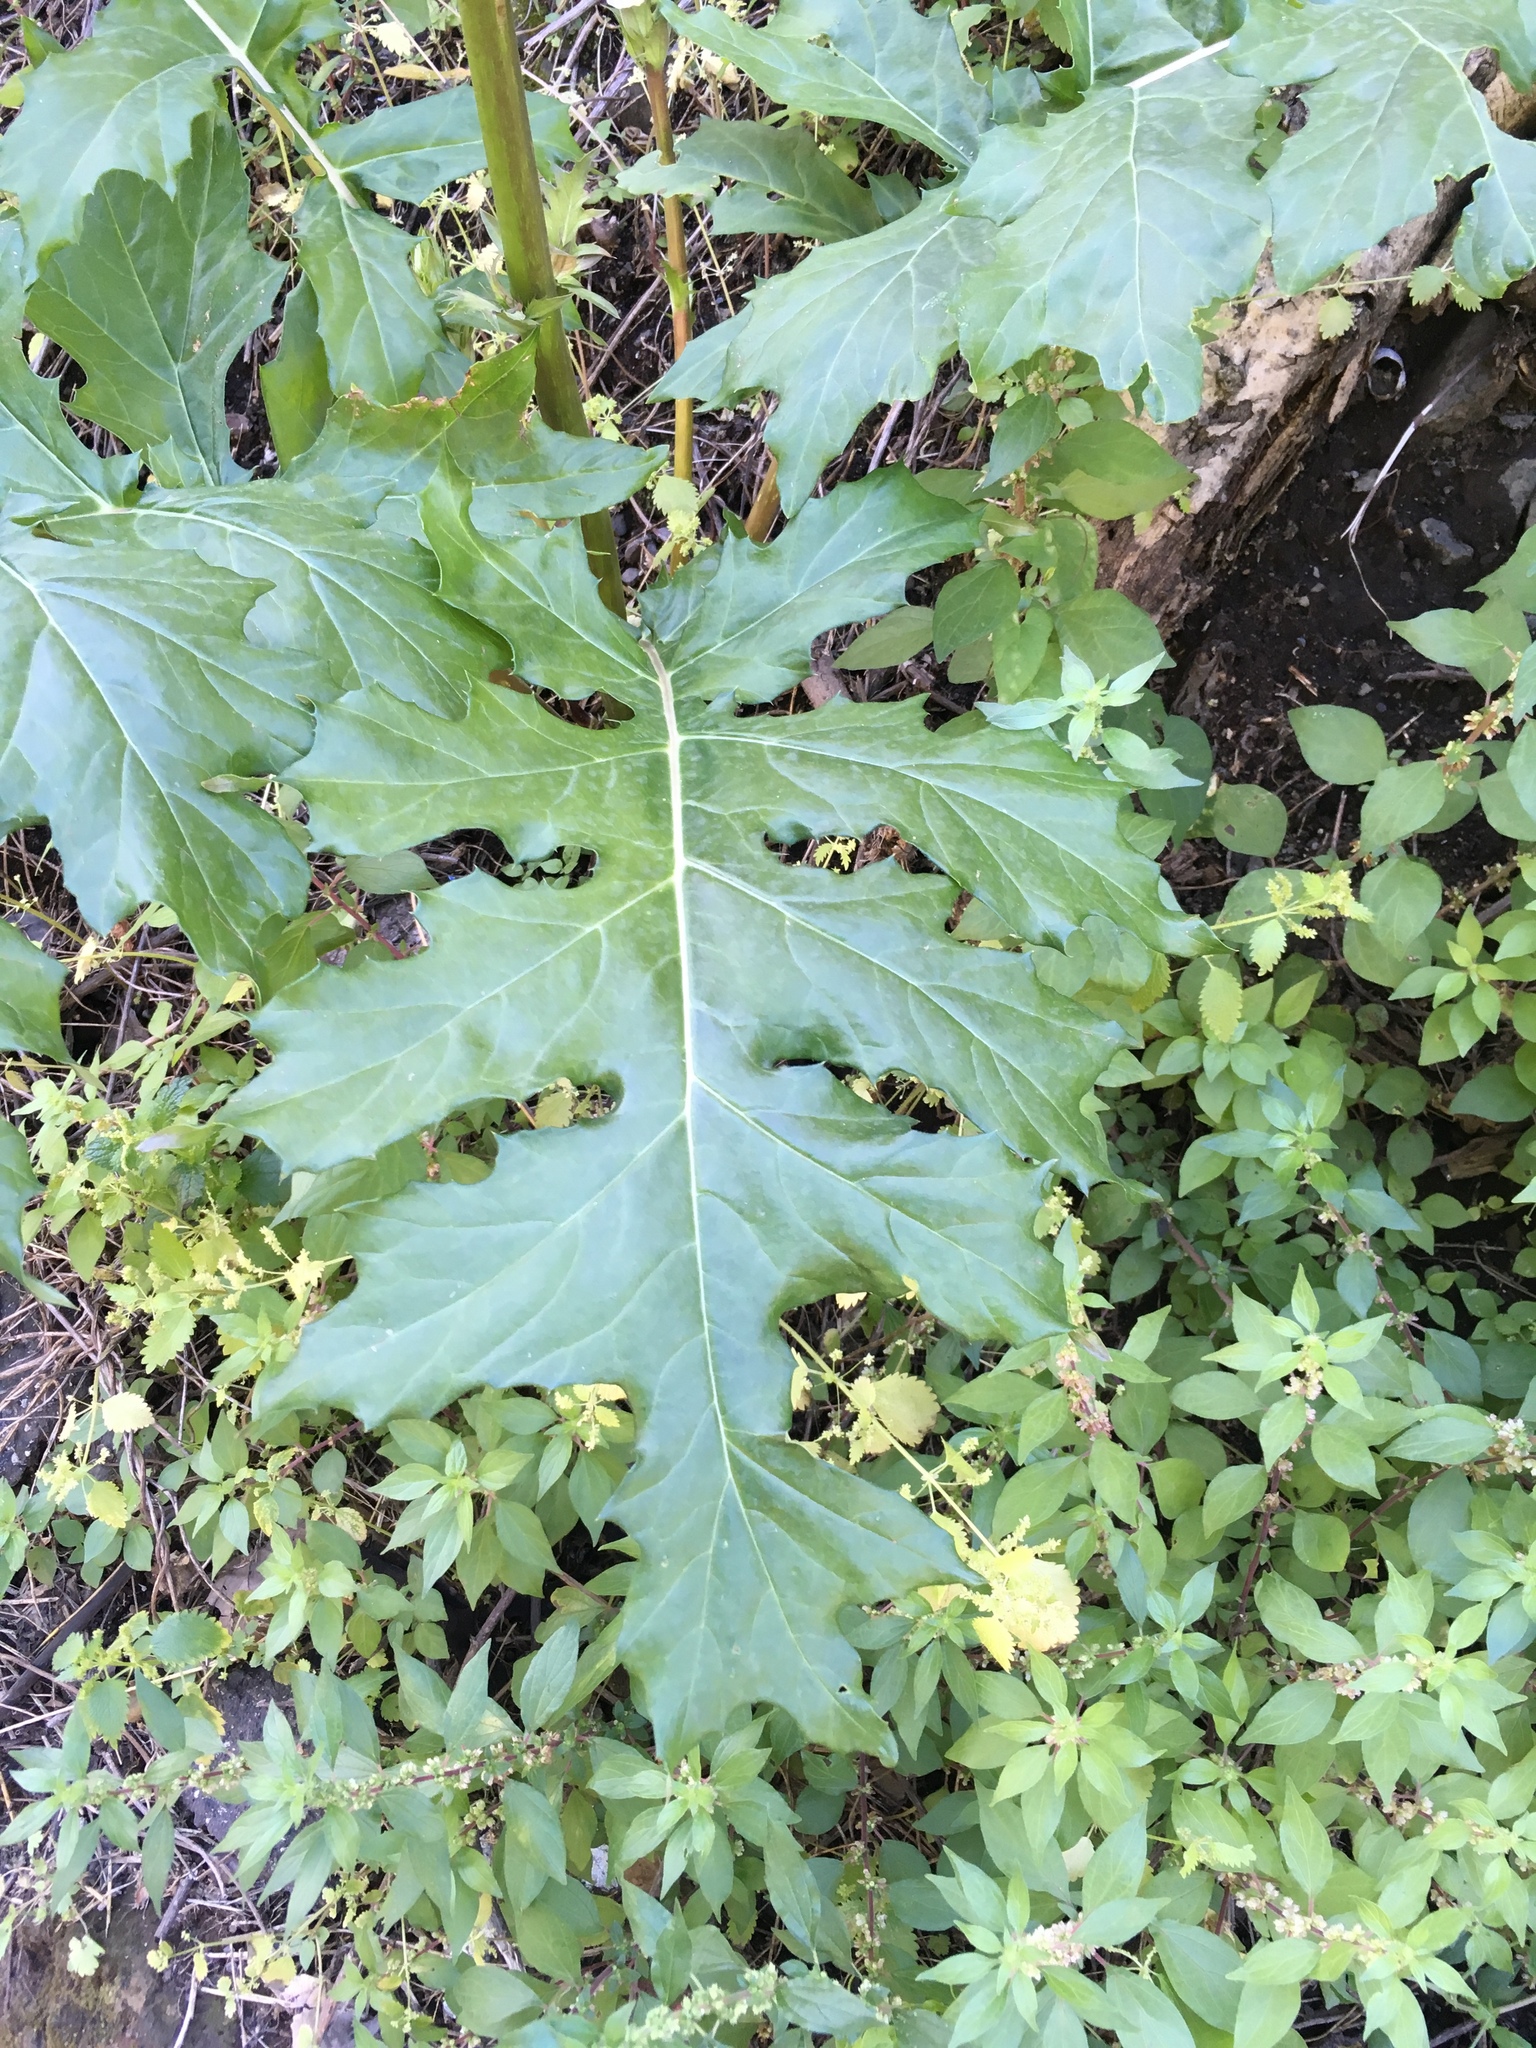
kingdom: Plantae
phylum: Tracheophyta
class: Magnoliopsida
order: Lamiales
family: Acanthaceae
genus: Acanthus
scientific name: Acanthus mollis
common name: Bear's-breech
